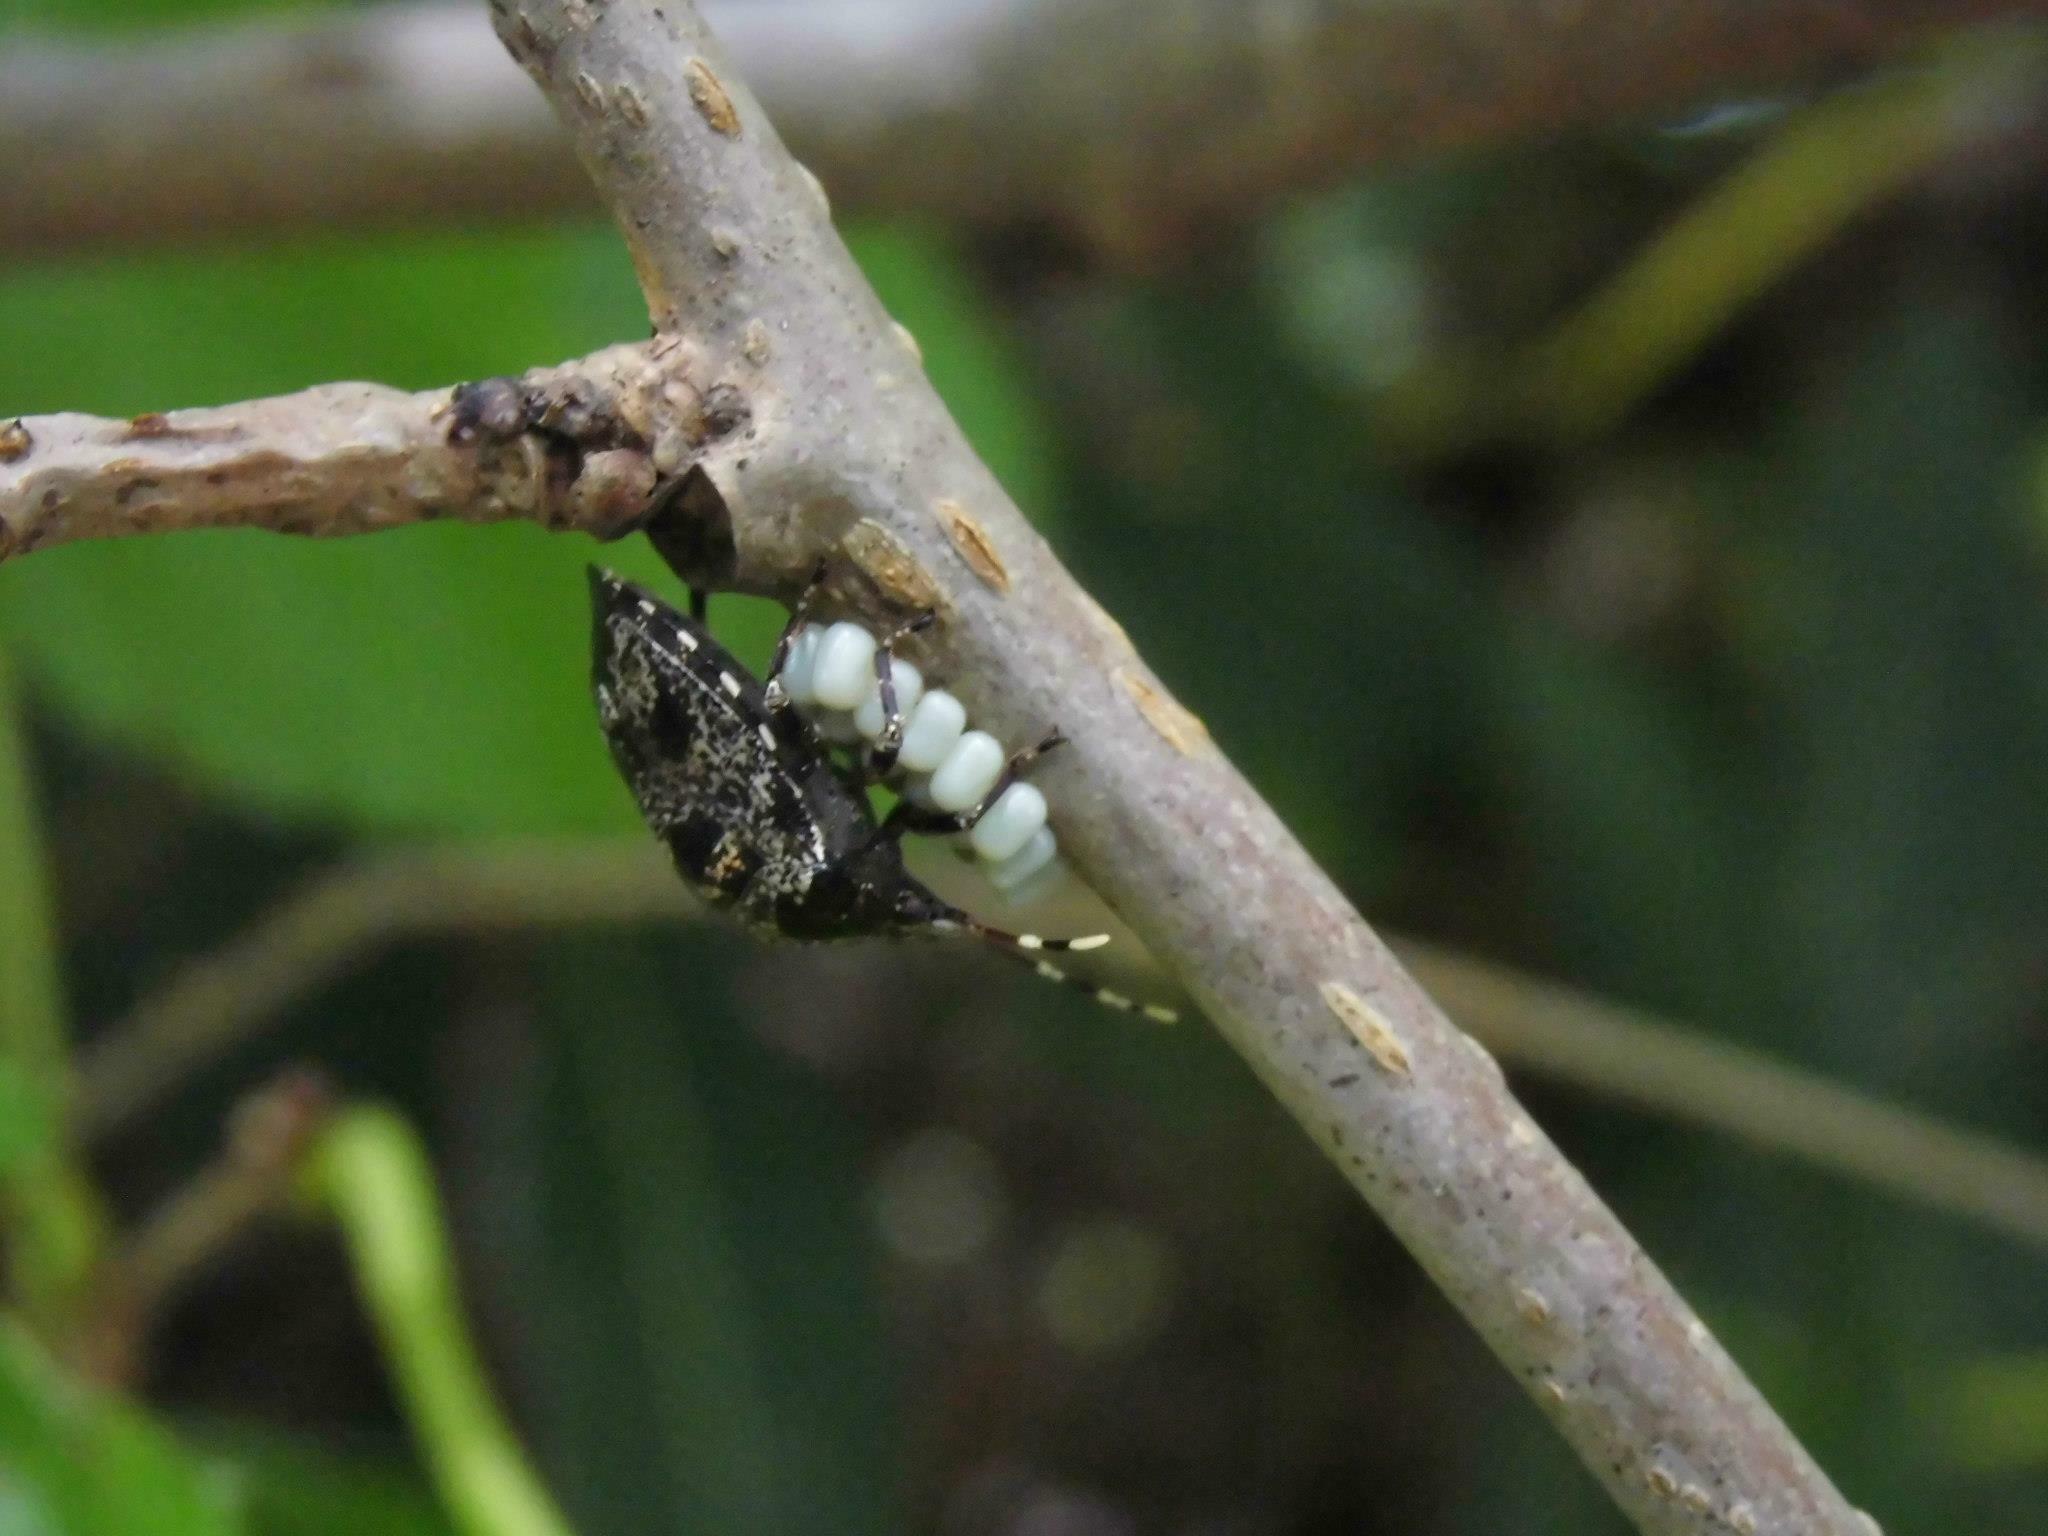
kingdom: Animalia
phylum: Arthropoda
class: Insecta
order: Hemiptera
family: Pentatomidae
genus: Antiteuchus
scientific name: Antiteuchus mixtus
